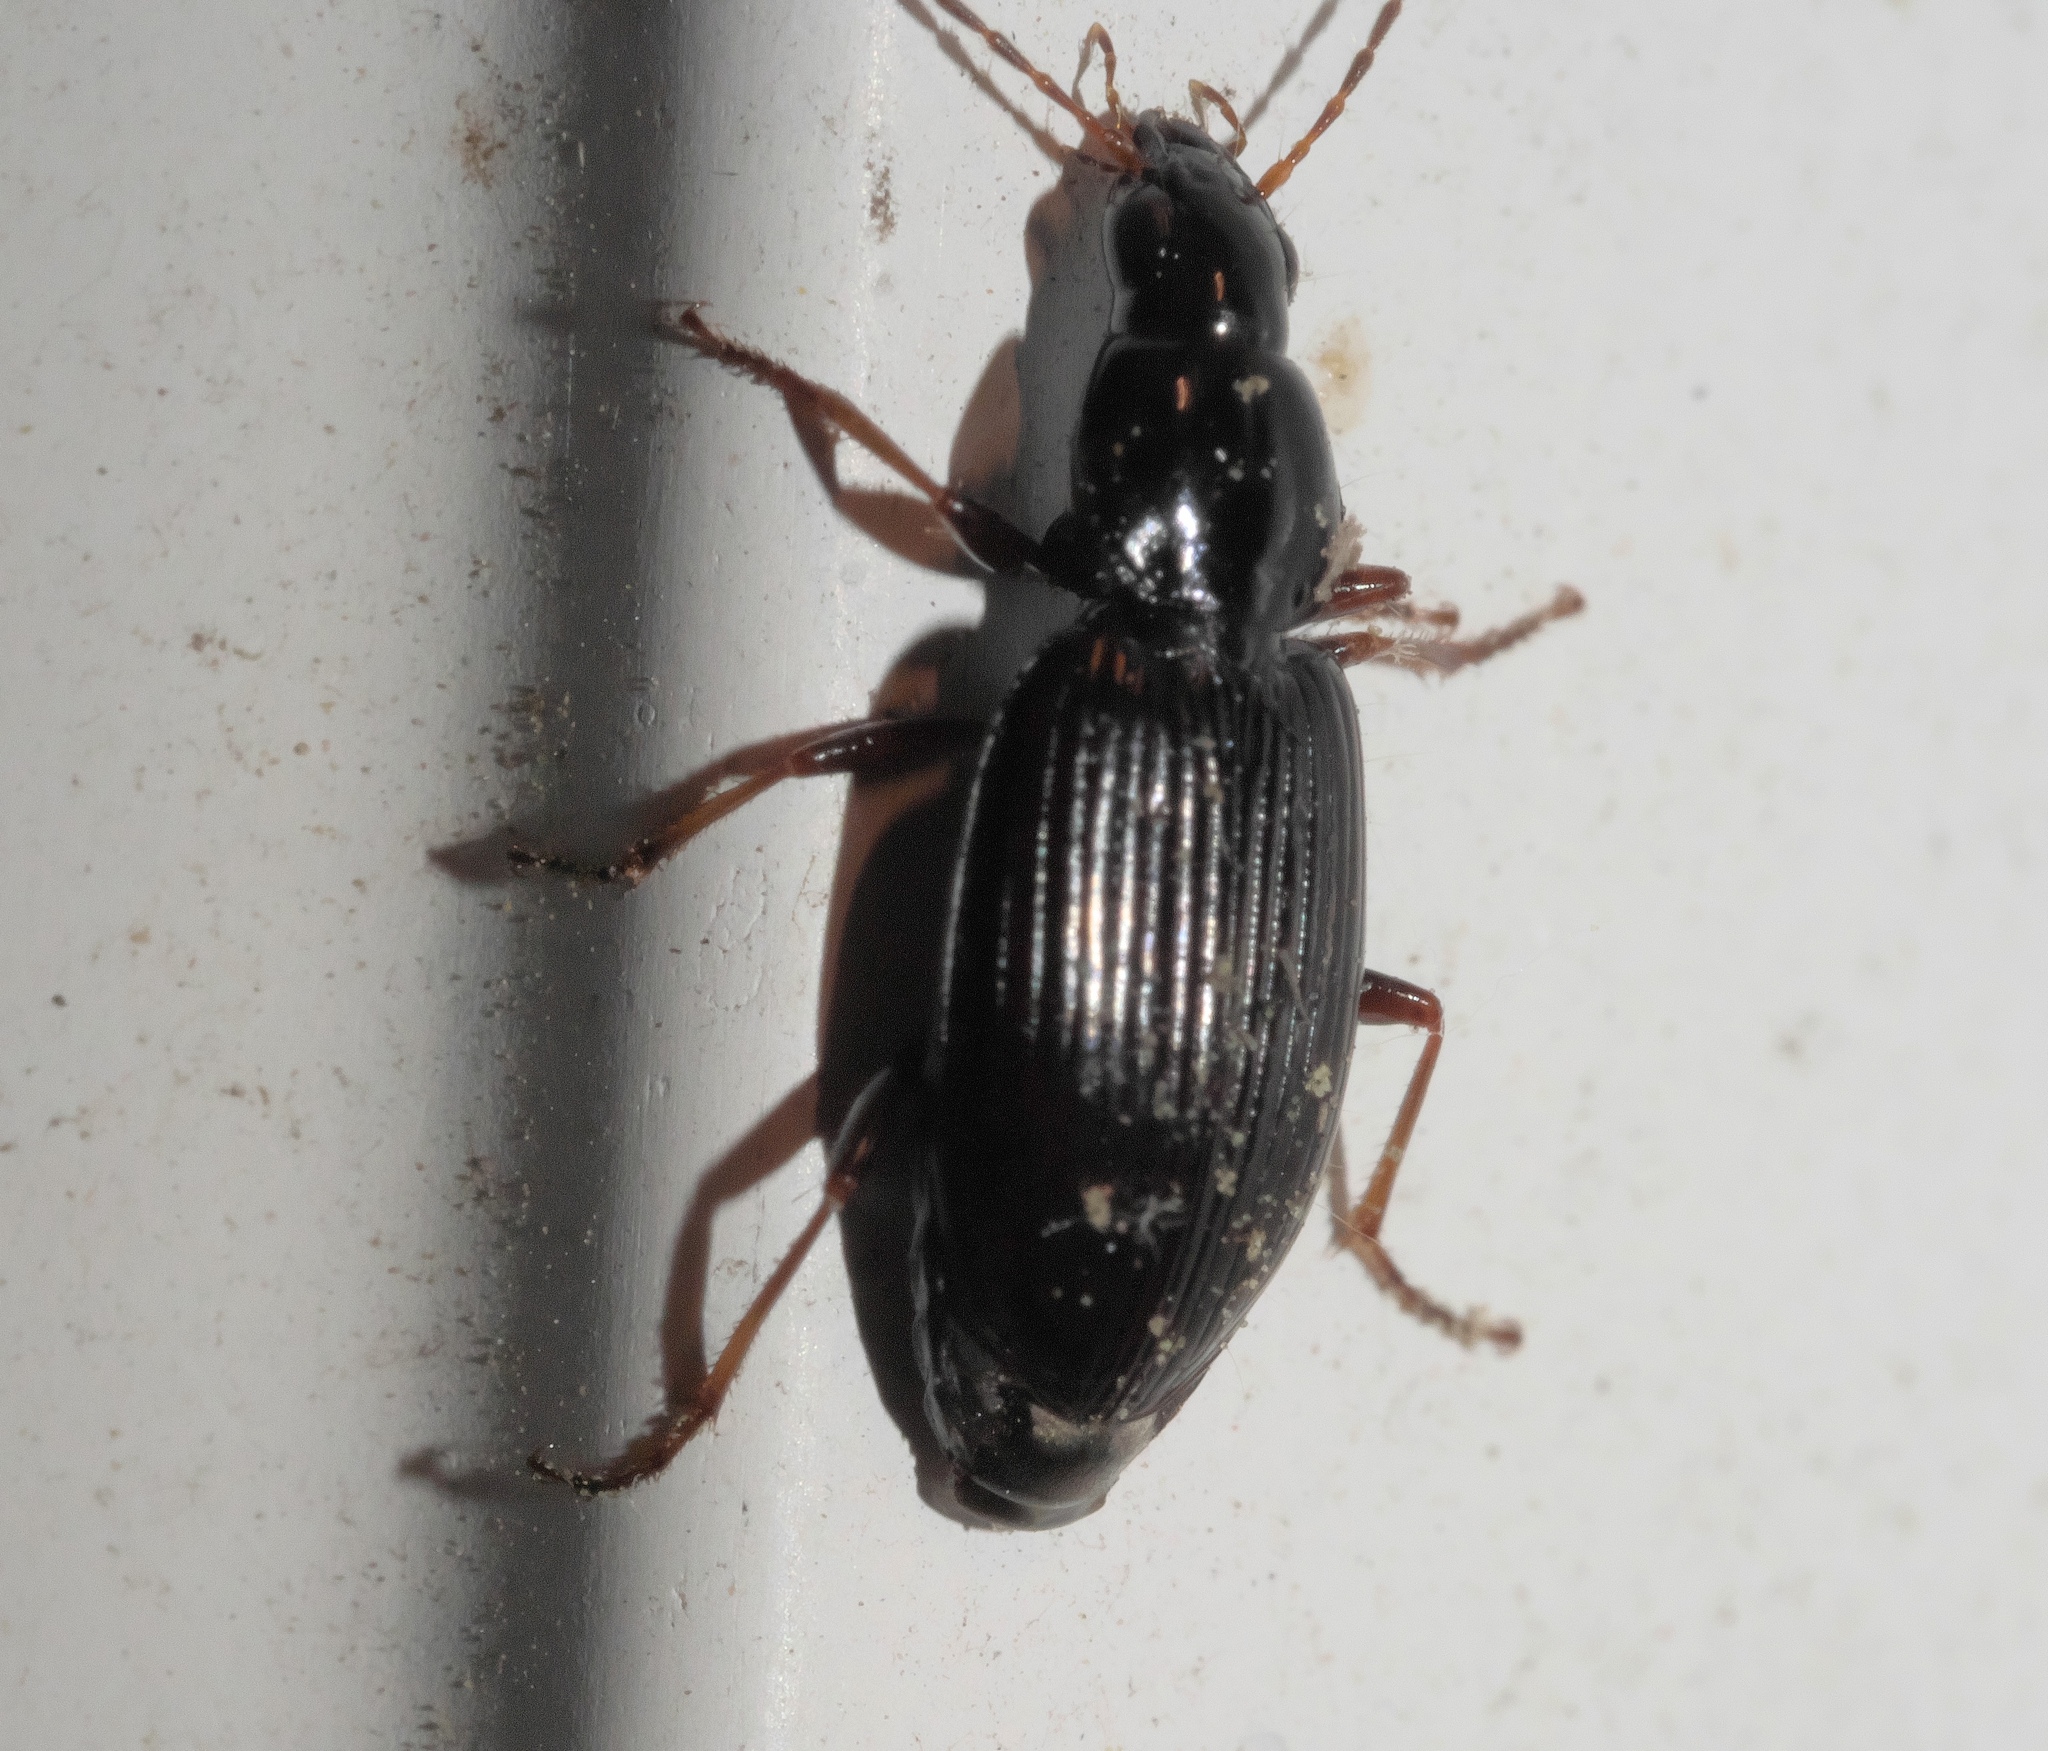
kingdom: Animalia
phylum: Arthropoda
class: Insecta
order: Coleoptera
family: Carabidae
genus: Agonum
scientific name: Agonum punctiforme
